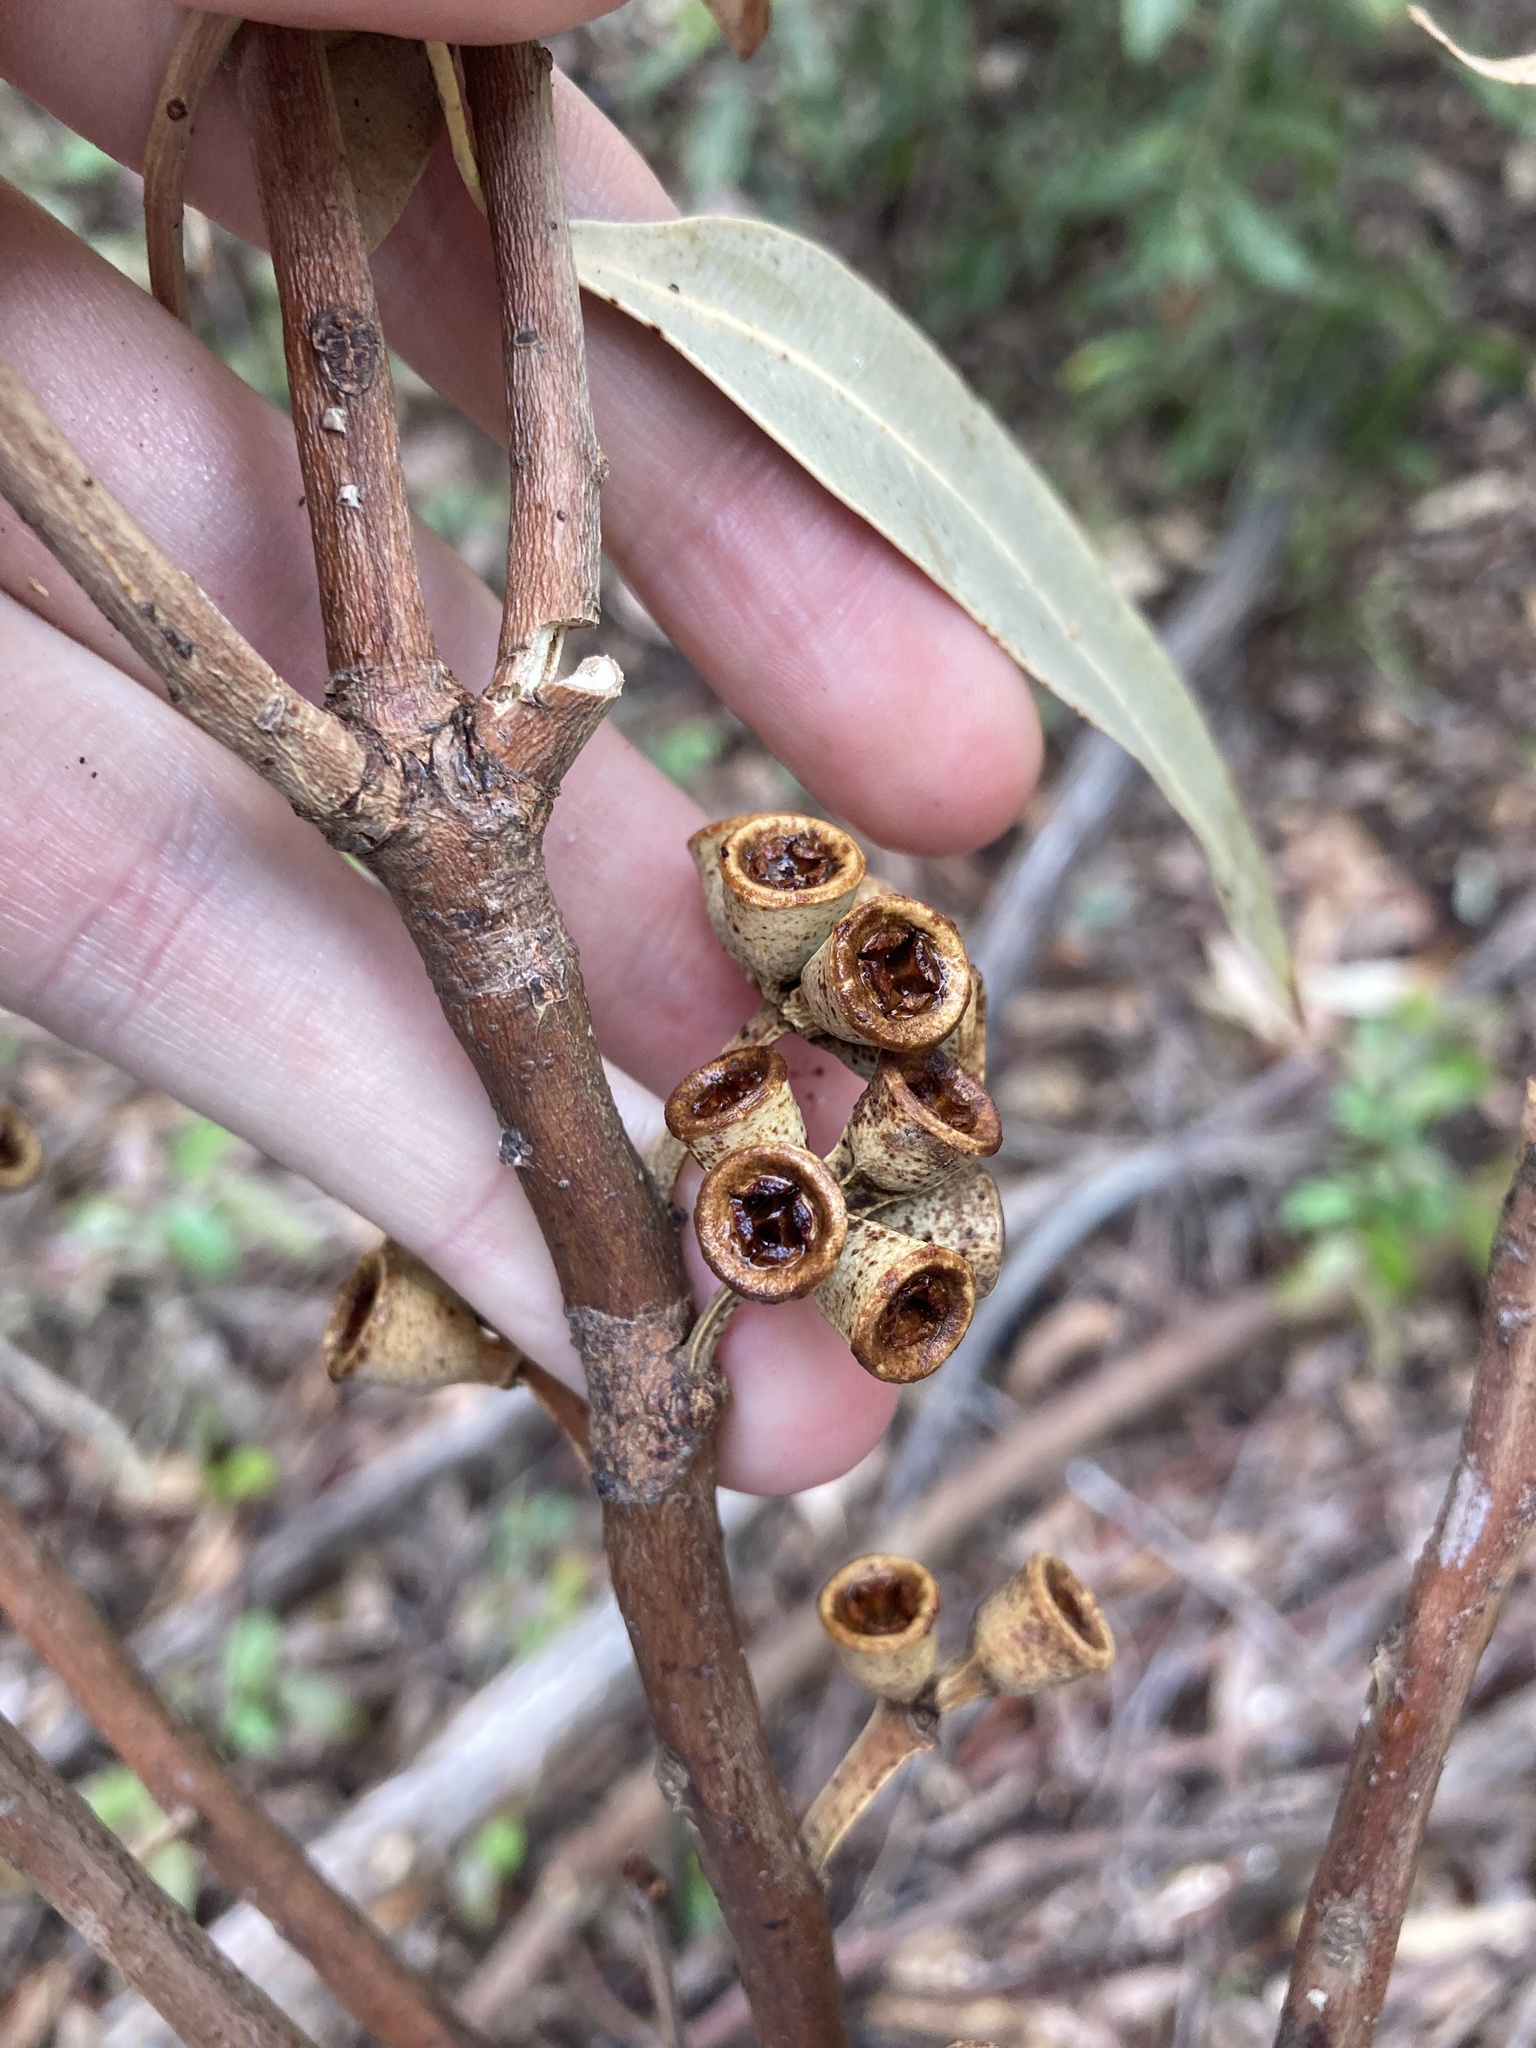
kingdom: Plantae
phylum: Tracheophyta
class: Magnoliopsida
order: Myrtales
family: Myrtaceae
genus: Eucalyptus
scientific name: Eucalyptus botryoides
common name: Bangalay
